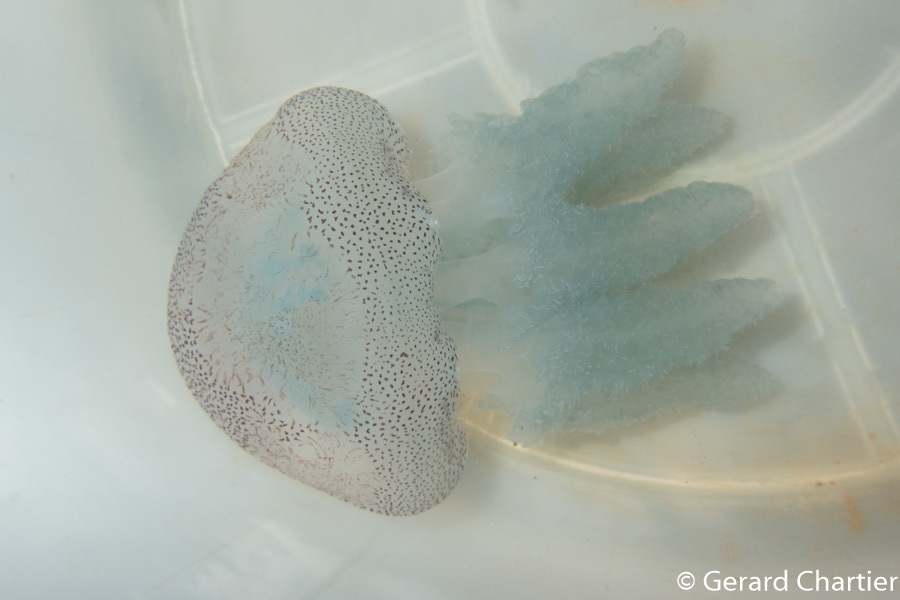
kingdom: Animalia
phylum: Cnidaria
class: Scyphozoa
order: Rhizostomeae
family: Catostylidae
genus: Acromitus
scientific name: Acromitus flagellatus
